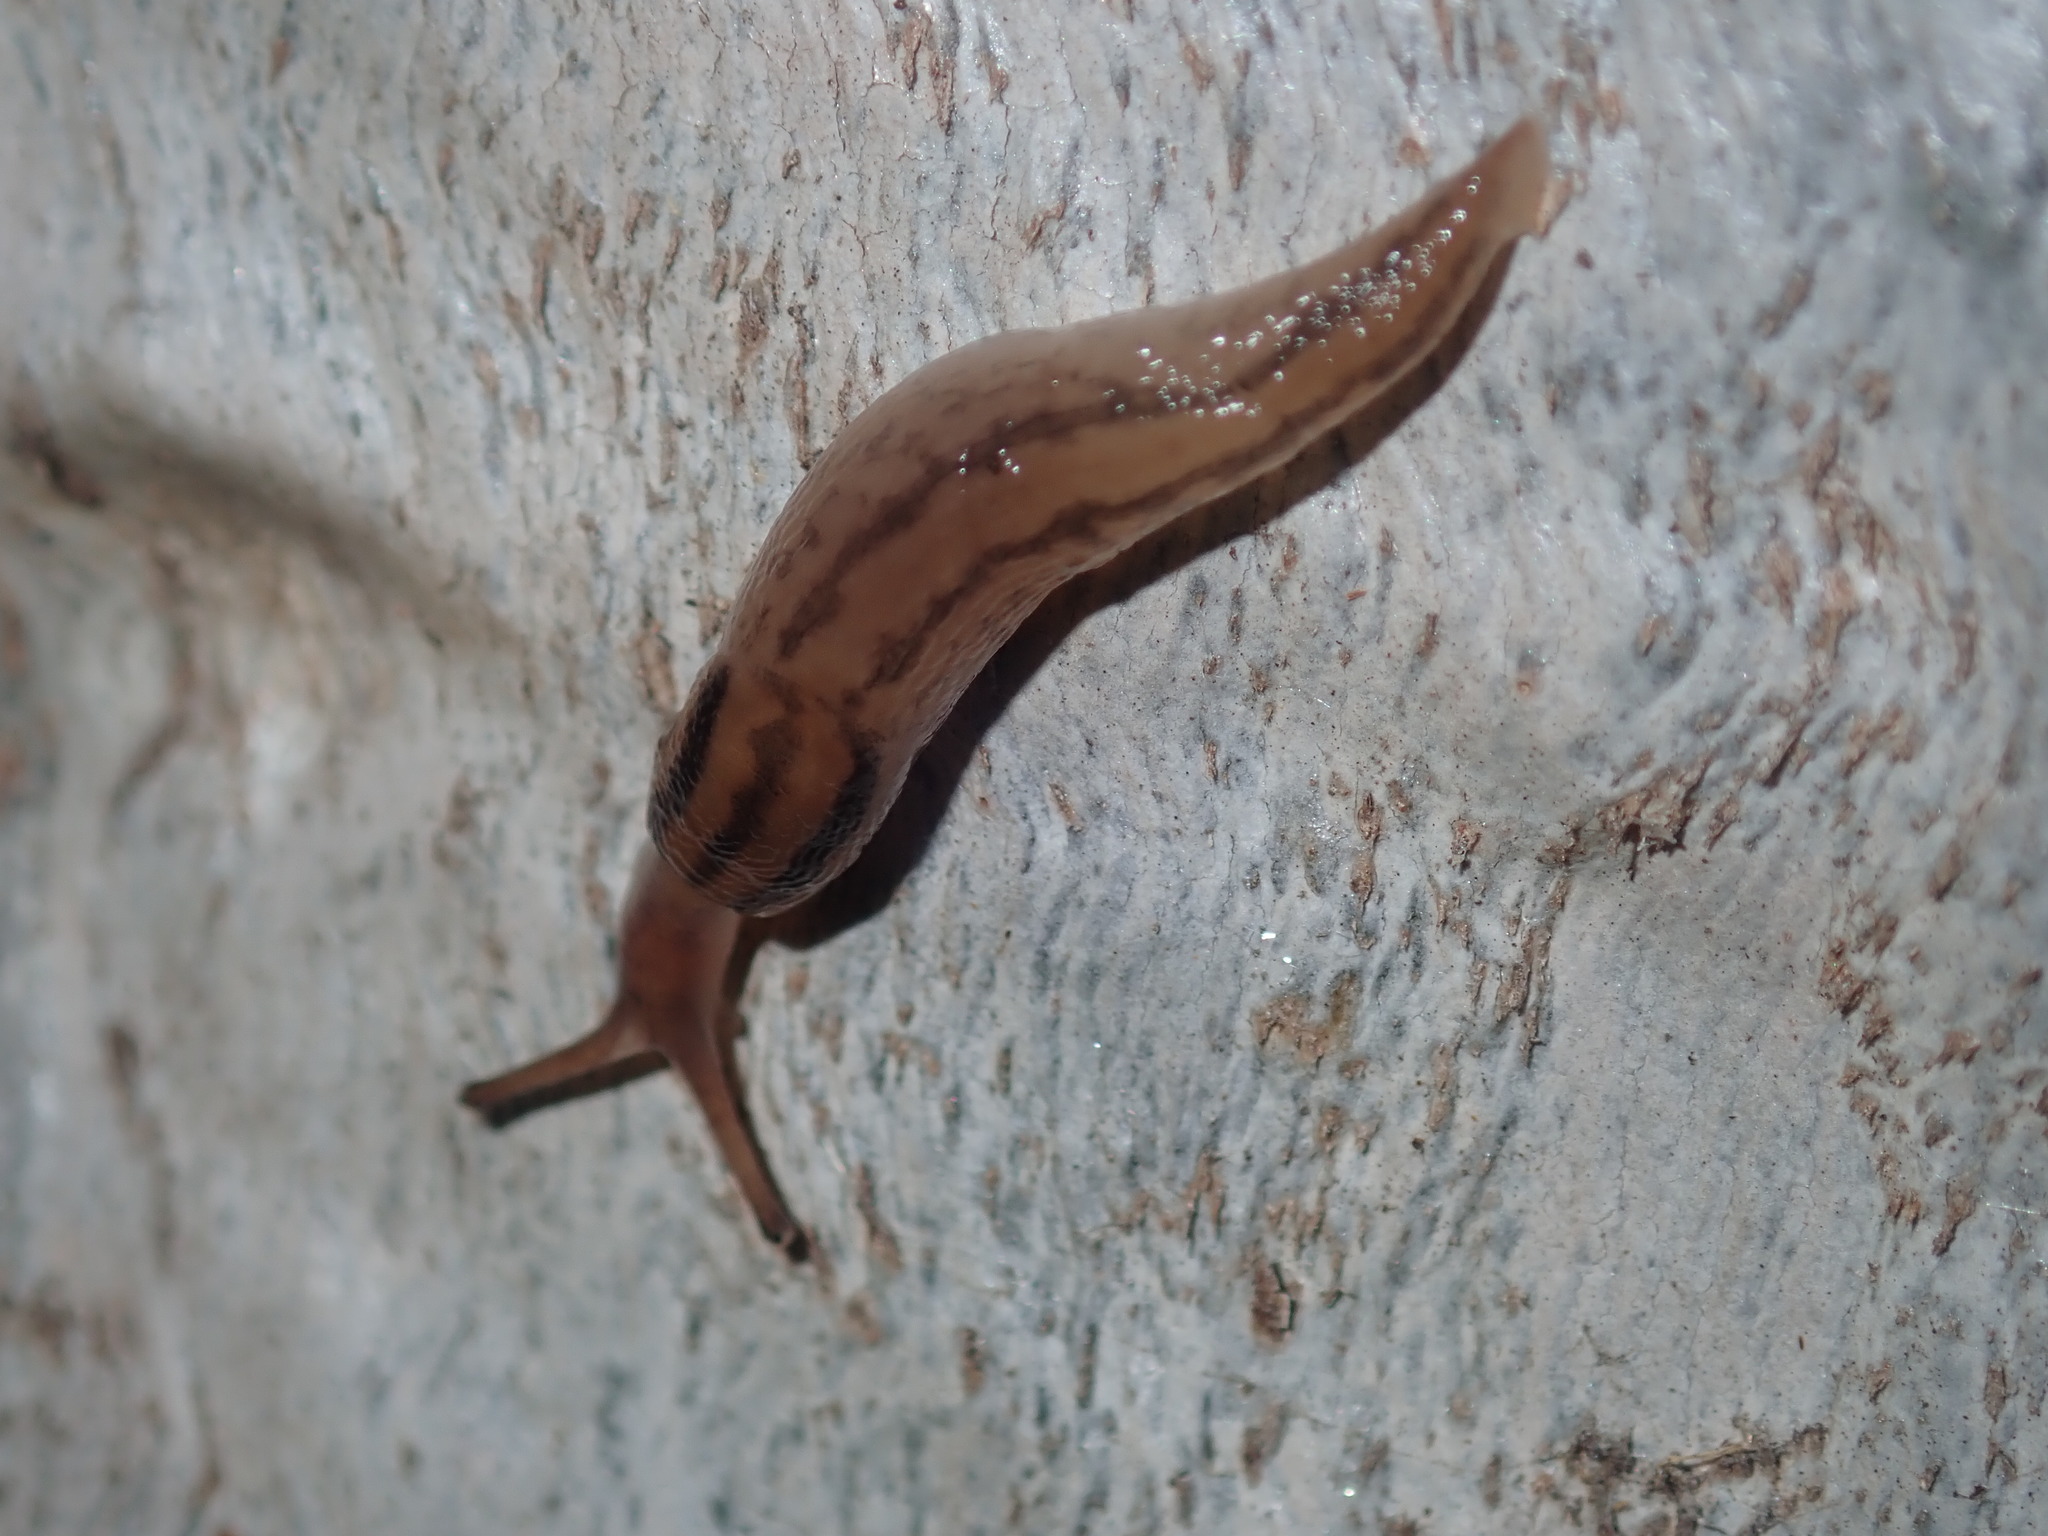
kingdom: Animalia
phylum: Mollusca
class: Gastropoda
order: Stylommatophora
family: Limacidae
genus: Ambigolimax
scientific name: Ambigolimax
